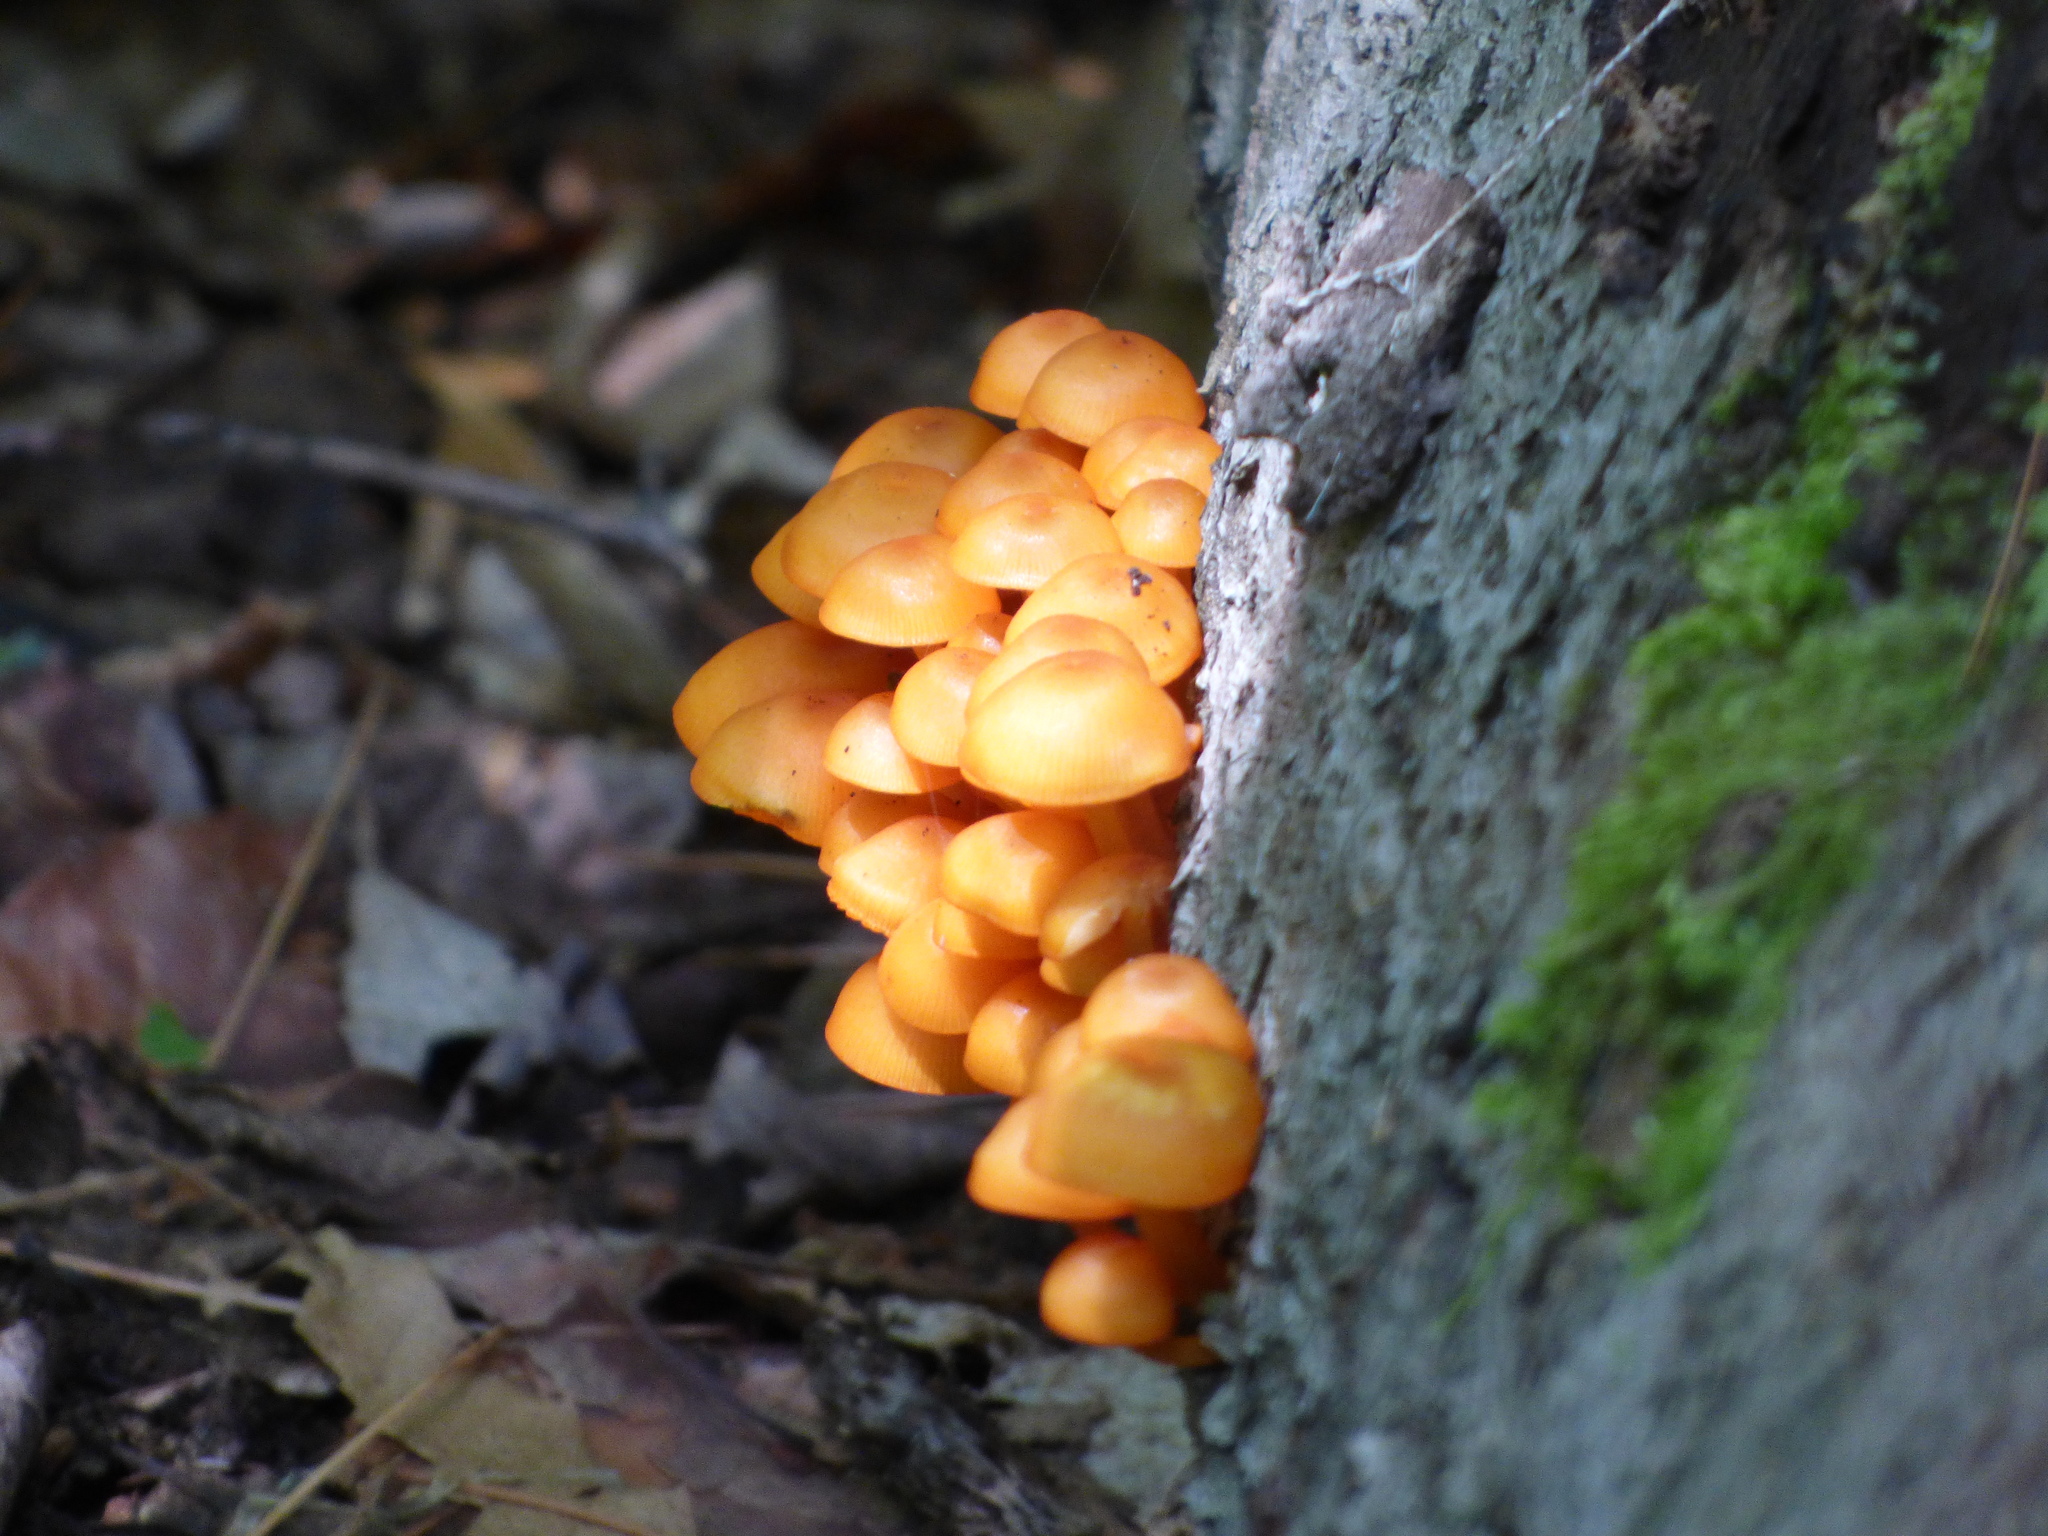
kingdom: Fungi
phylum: Basidiomycota
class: Agaricomycetes
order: Agaricales
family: Mycenaceae
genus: Mycena
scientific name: Mycena leaiana
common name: Orange mycena
